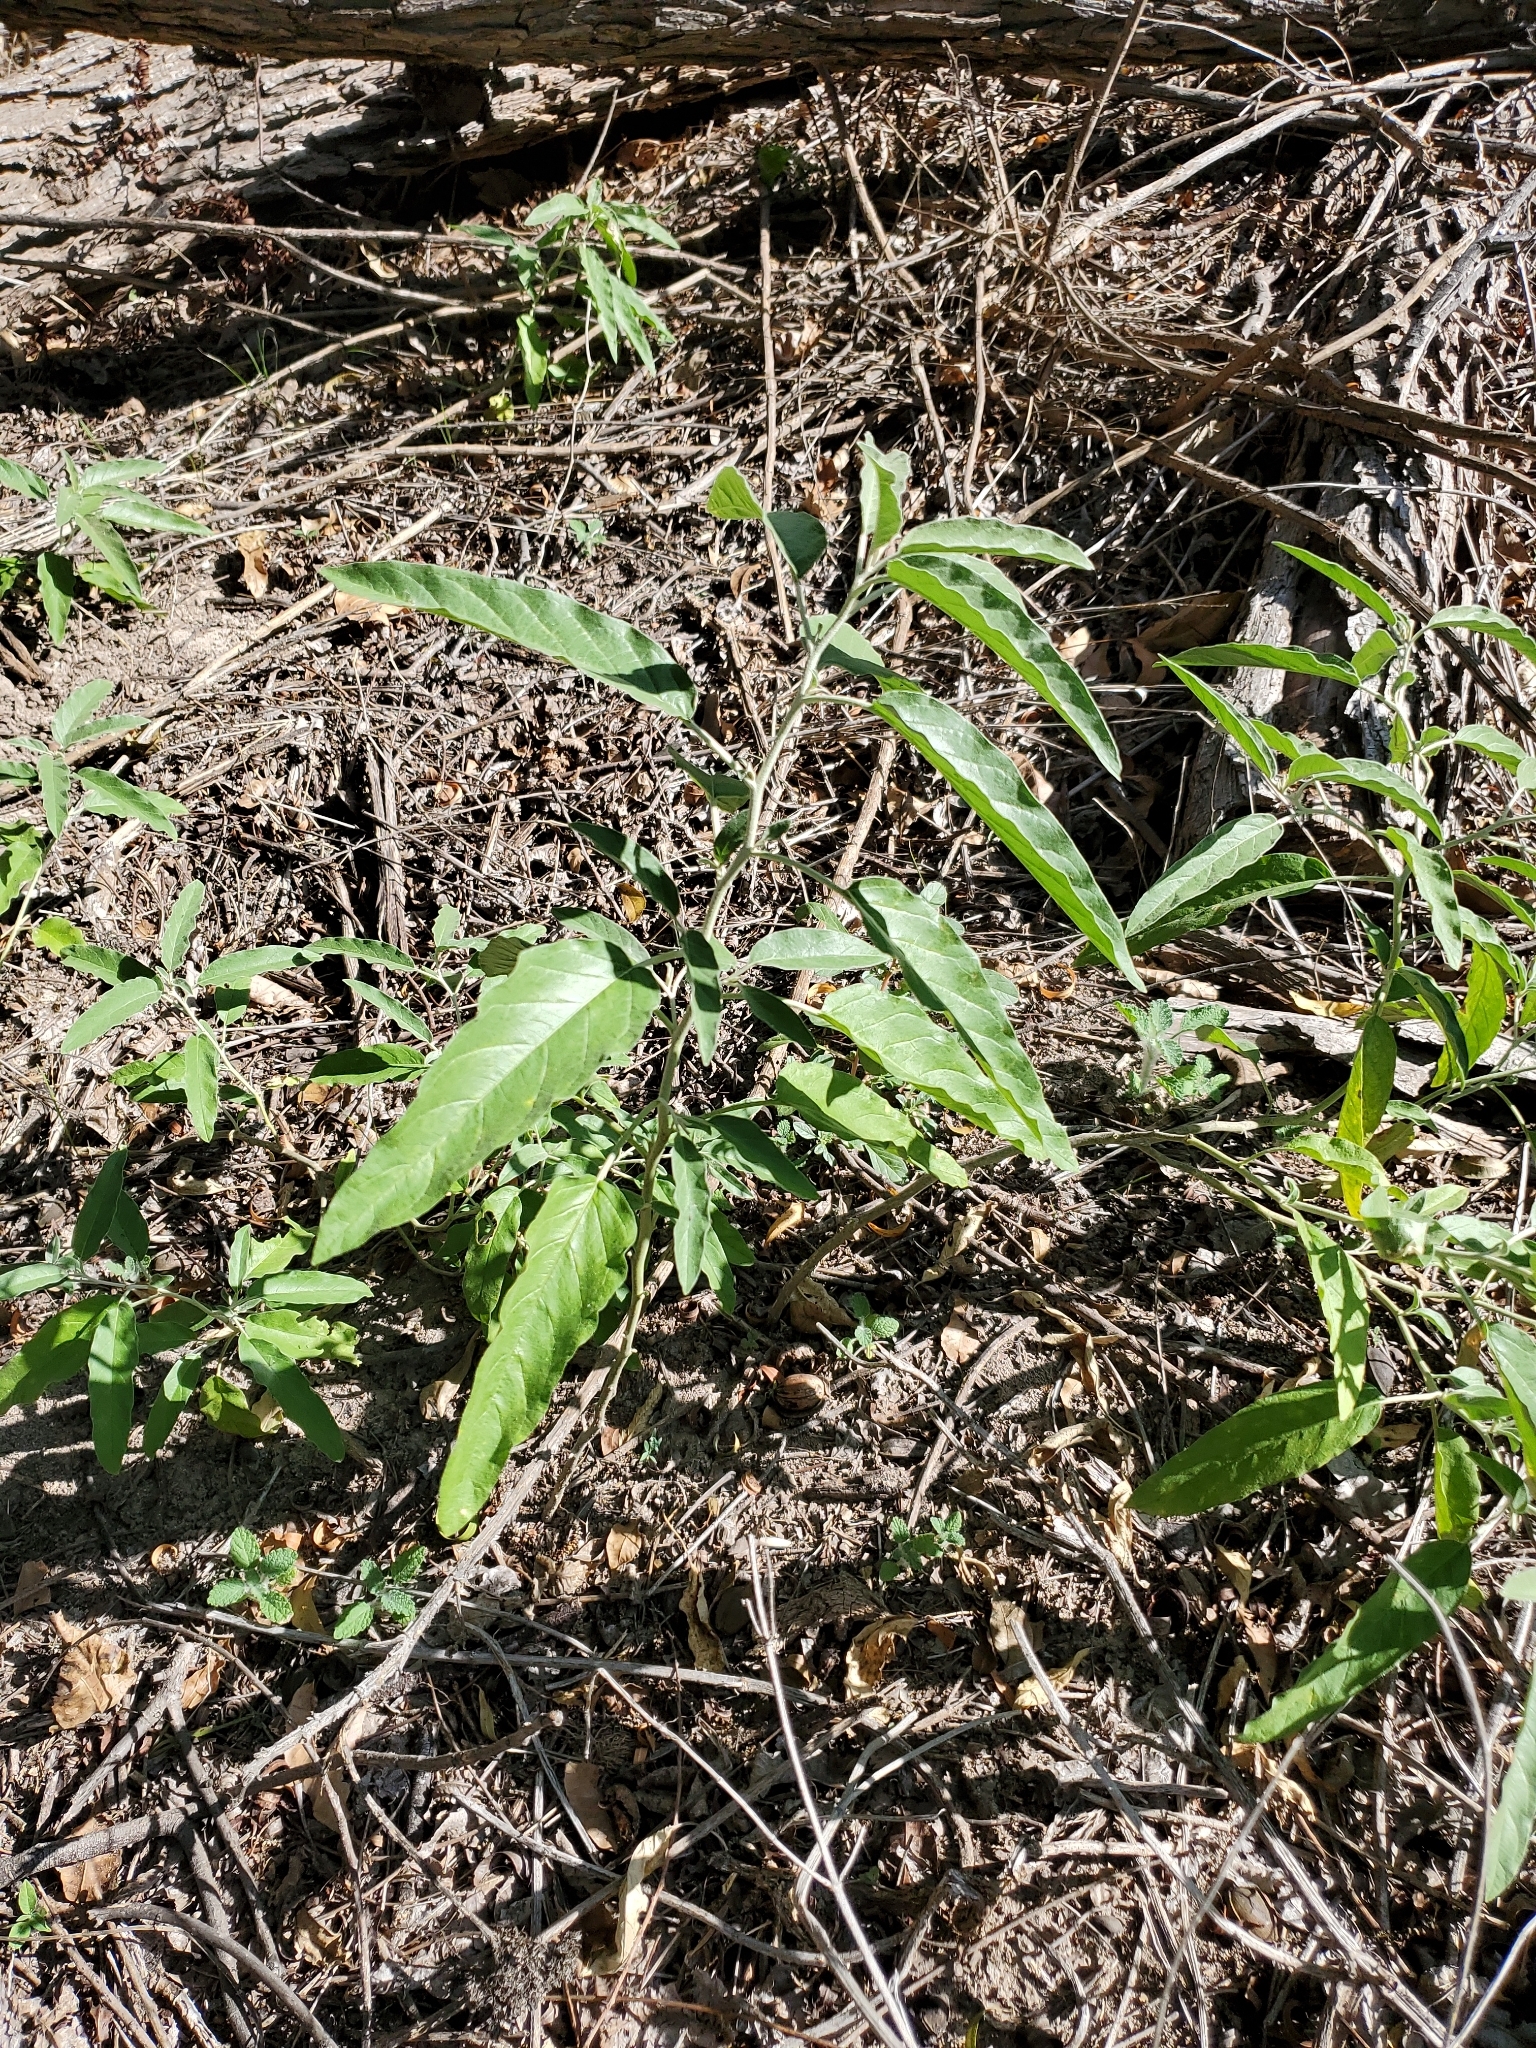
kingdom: Plantae
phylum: Tracheophyta
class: Magnoliopsida
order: Solanales
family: Solanaceae
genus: Solanum
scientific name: Solanum elaeagnifolium
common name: Silverleaf nightshade
